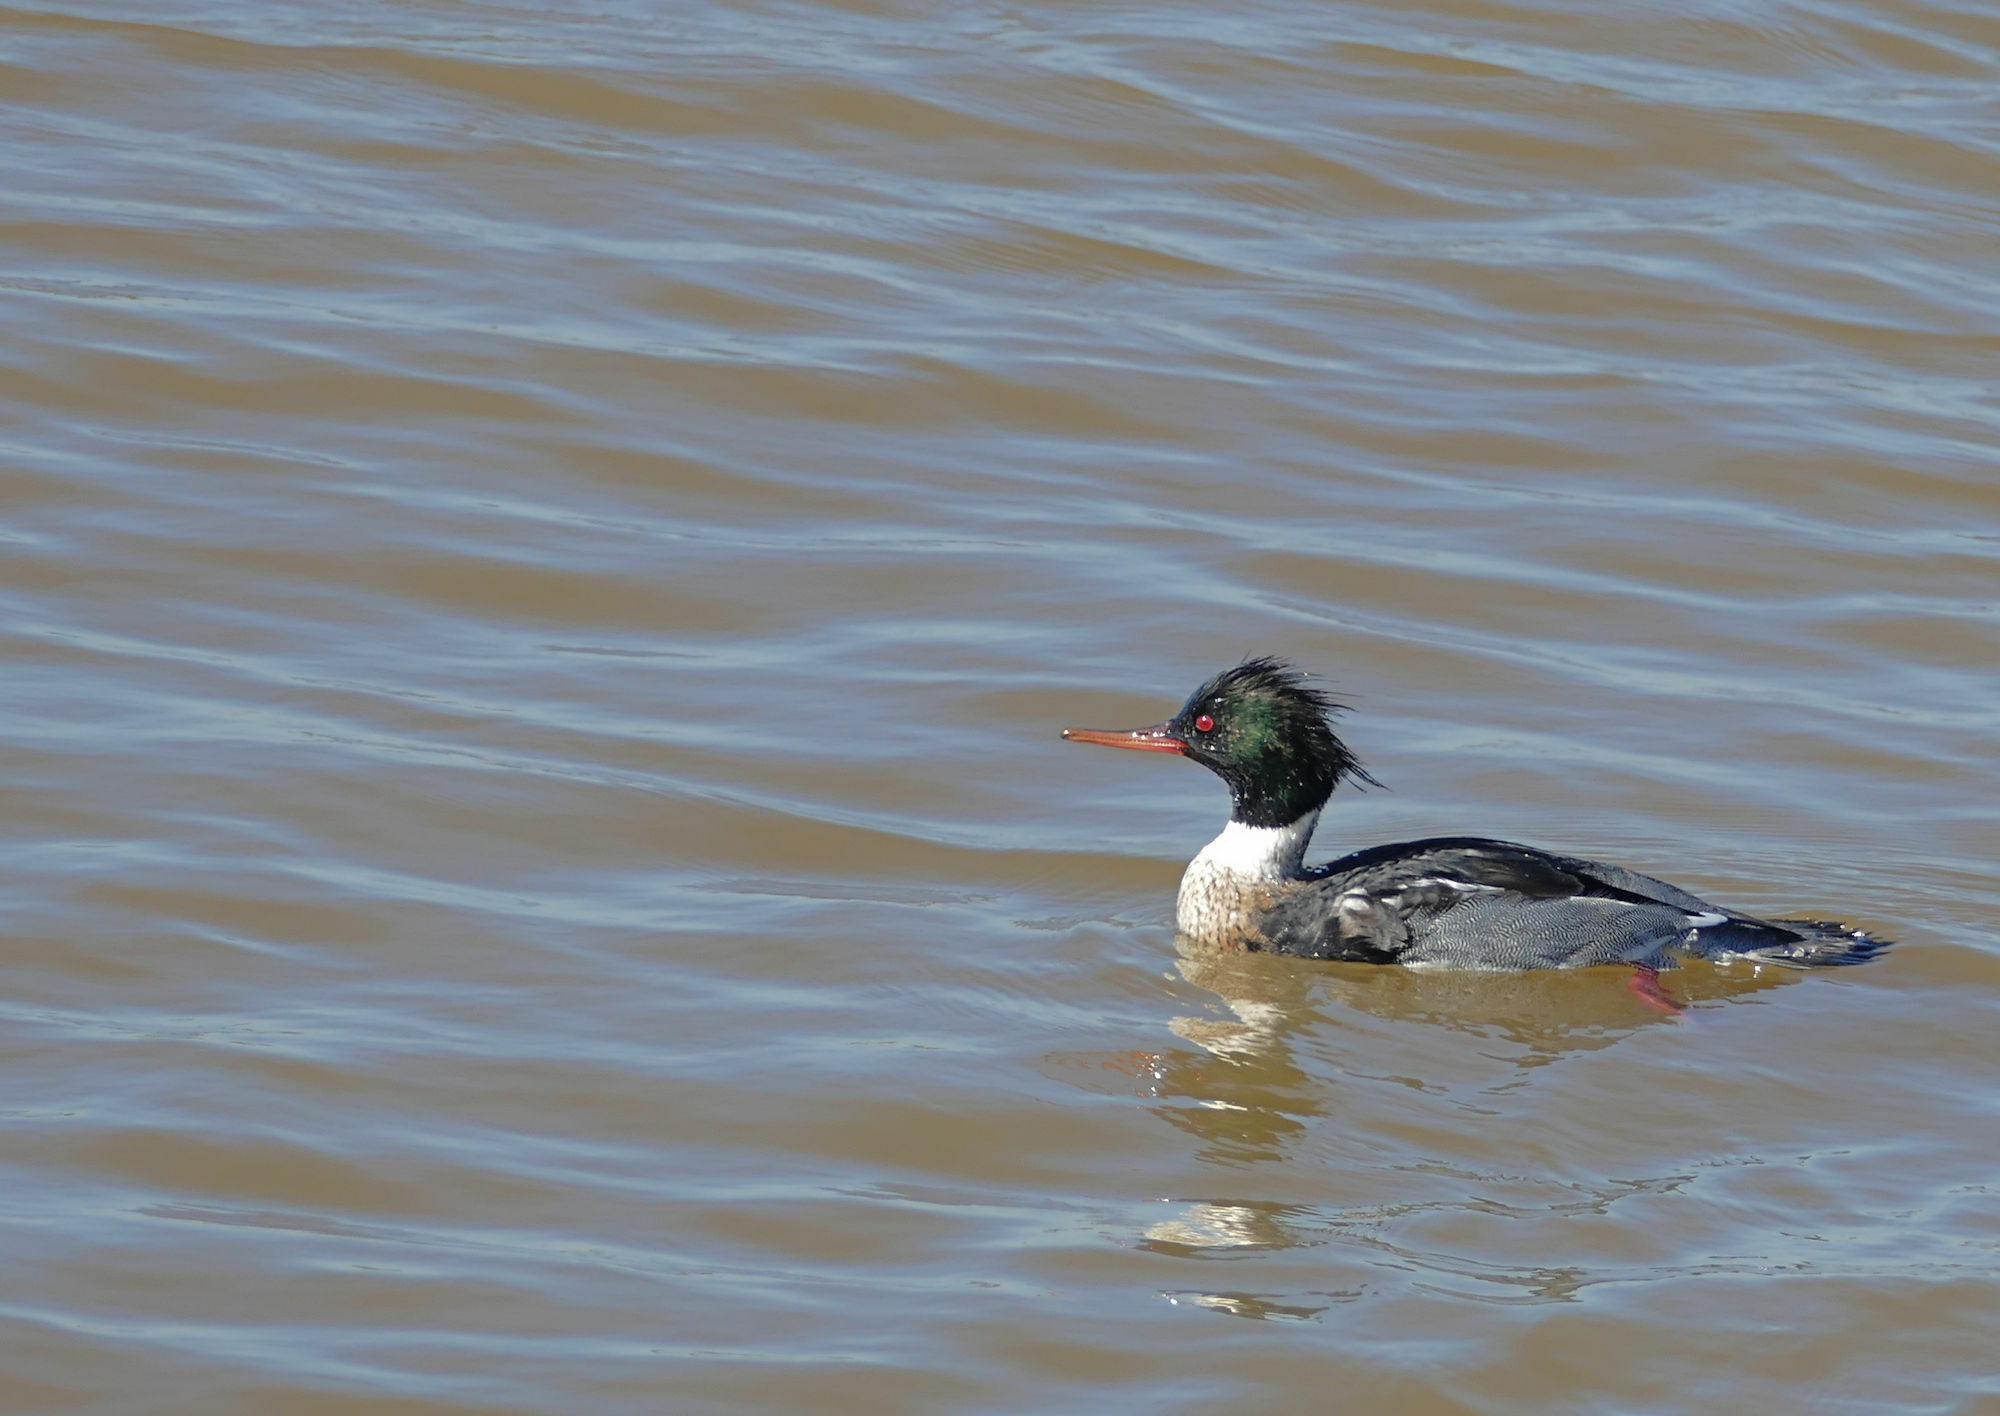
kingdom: Animalia
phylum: Chordata
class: Aves
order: Anseriformes
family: Anatidae
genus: Mergus
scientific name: Mergus serrator
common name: Red-breasted merganser
